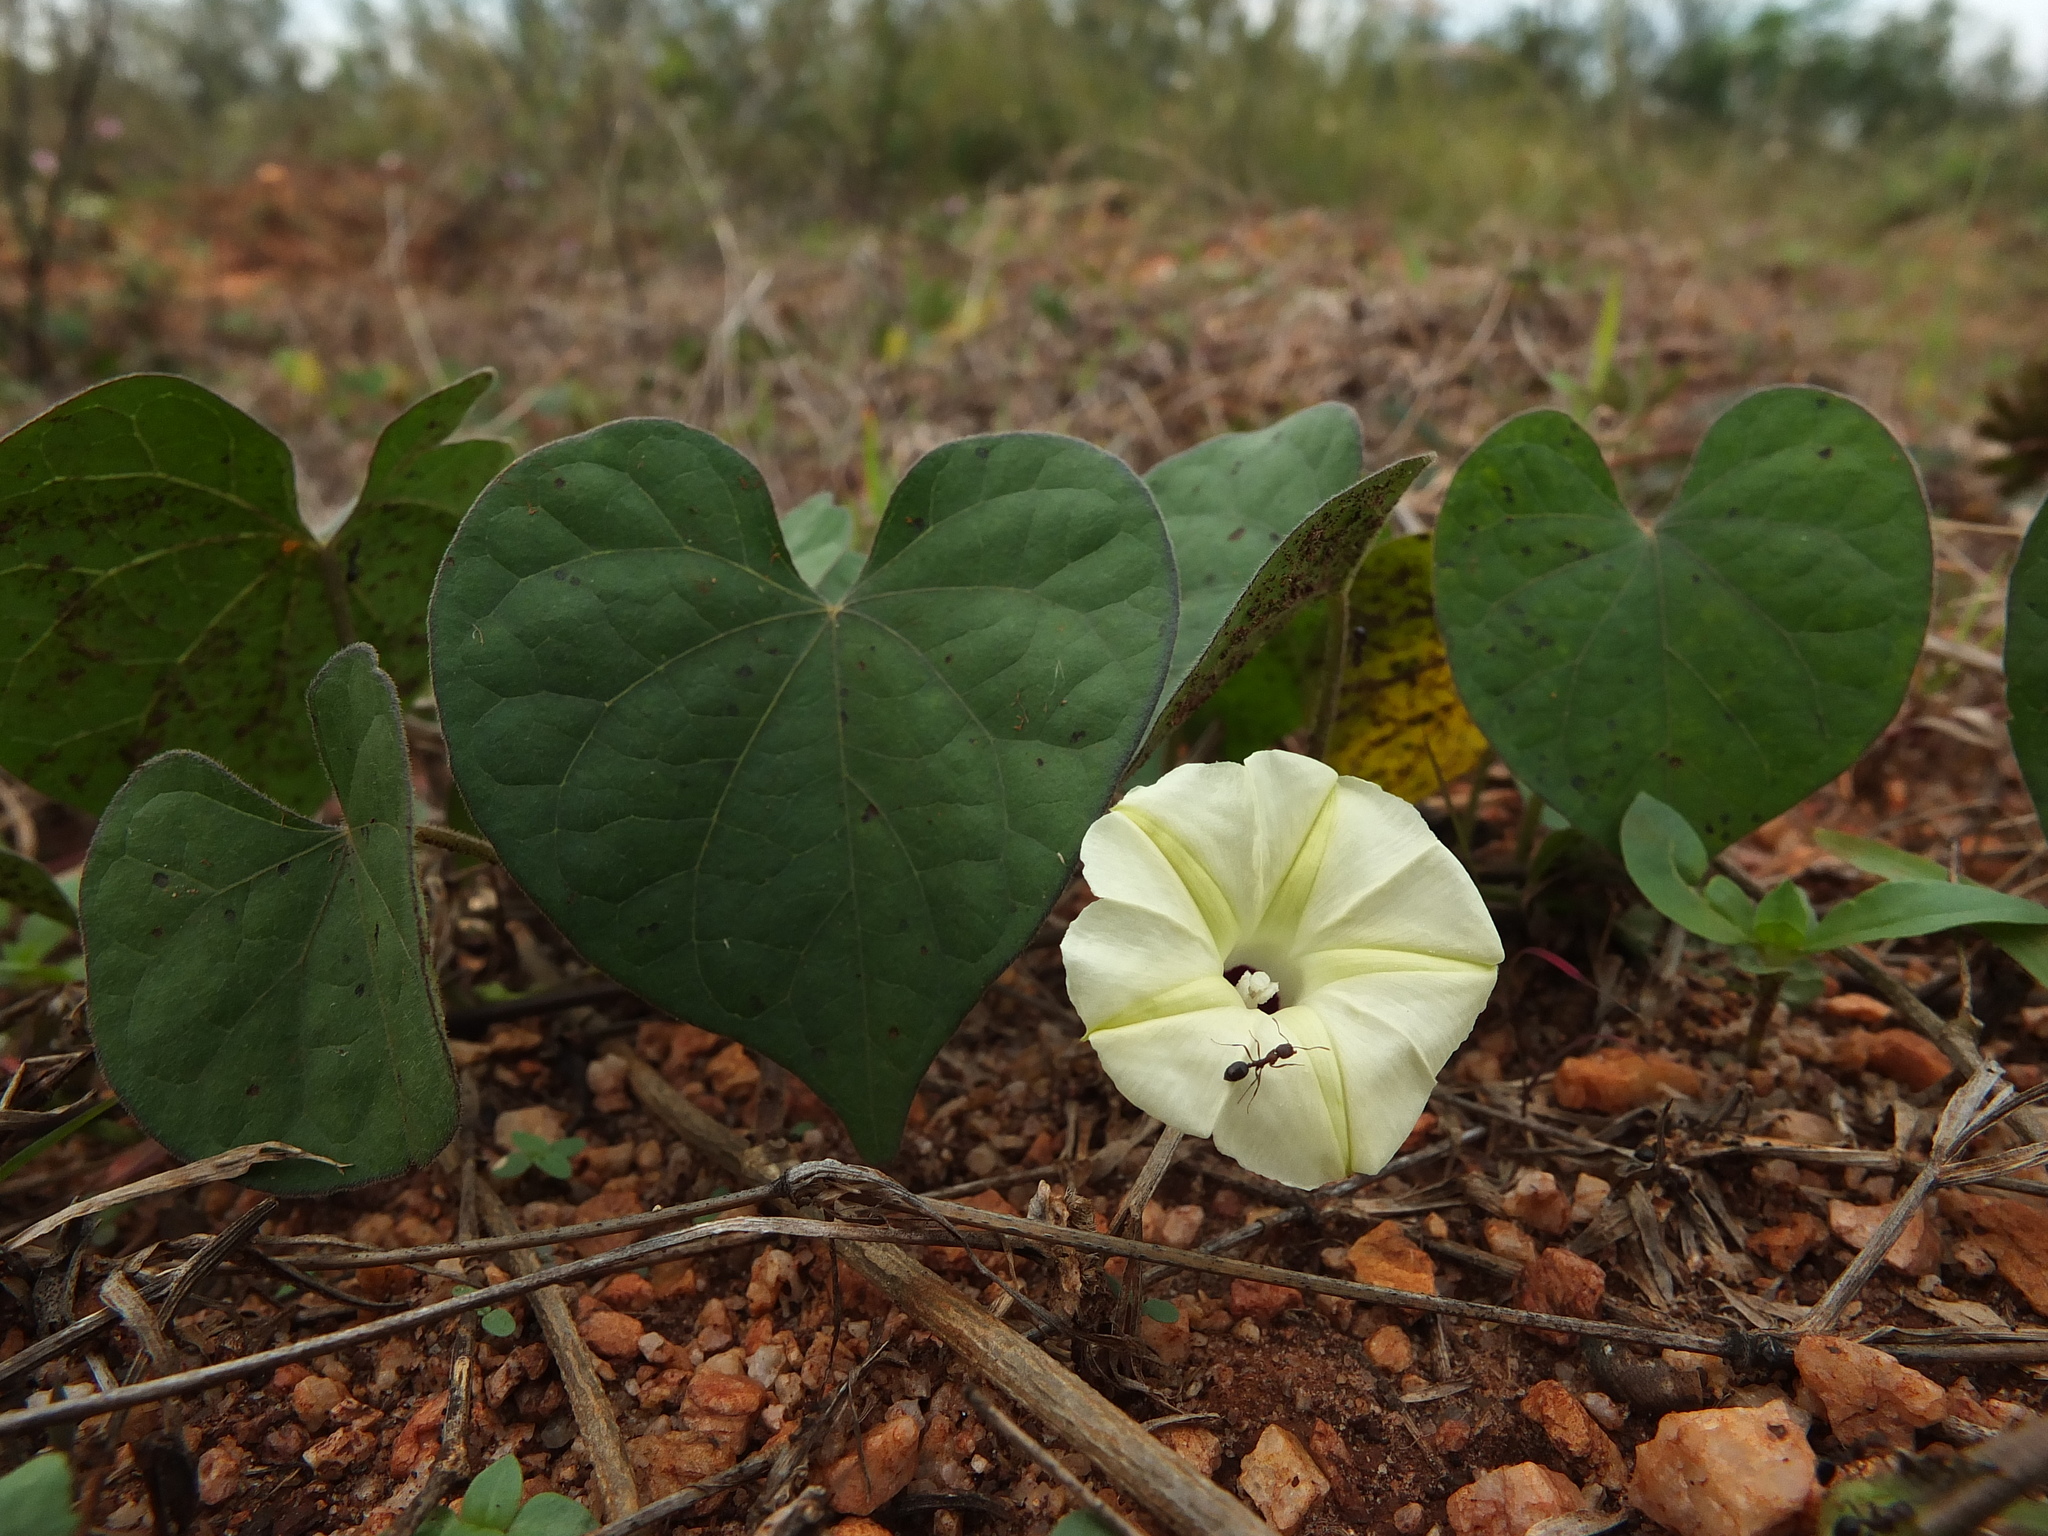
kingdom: Plantae
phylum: Tracheophyta
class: Magnoliopsida
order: Solanales
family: Convolvulaceae
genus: Ipomoea
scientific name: Ipomoea obscura
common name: Obscure morning-glory
